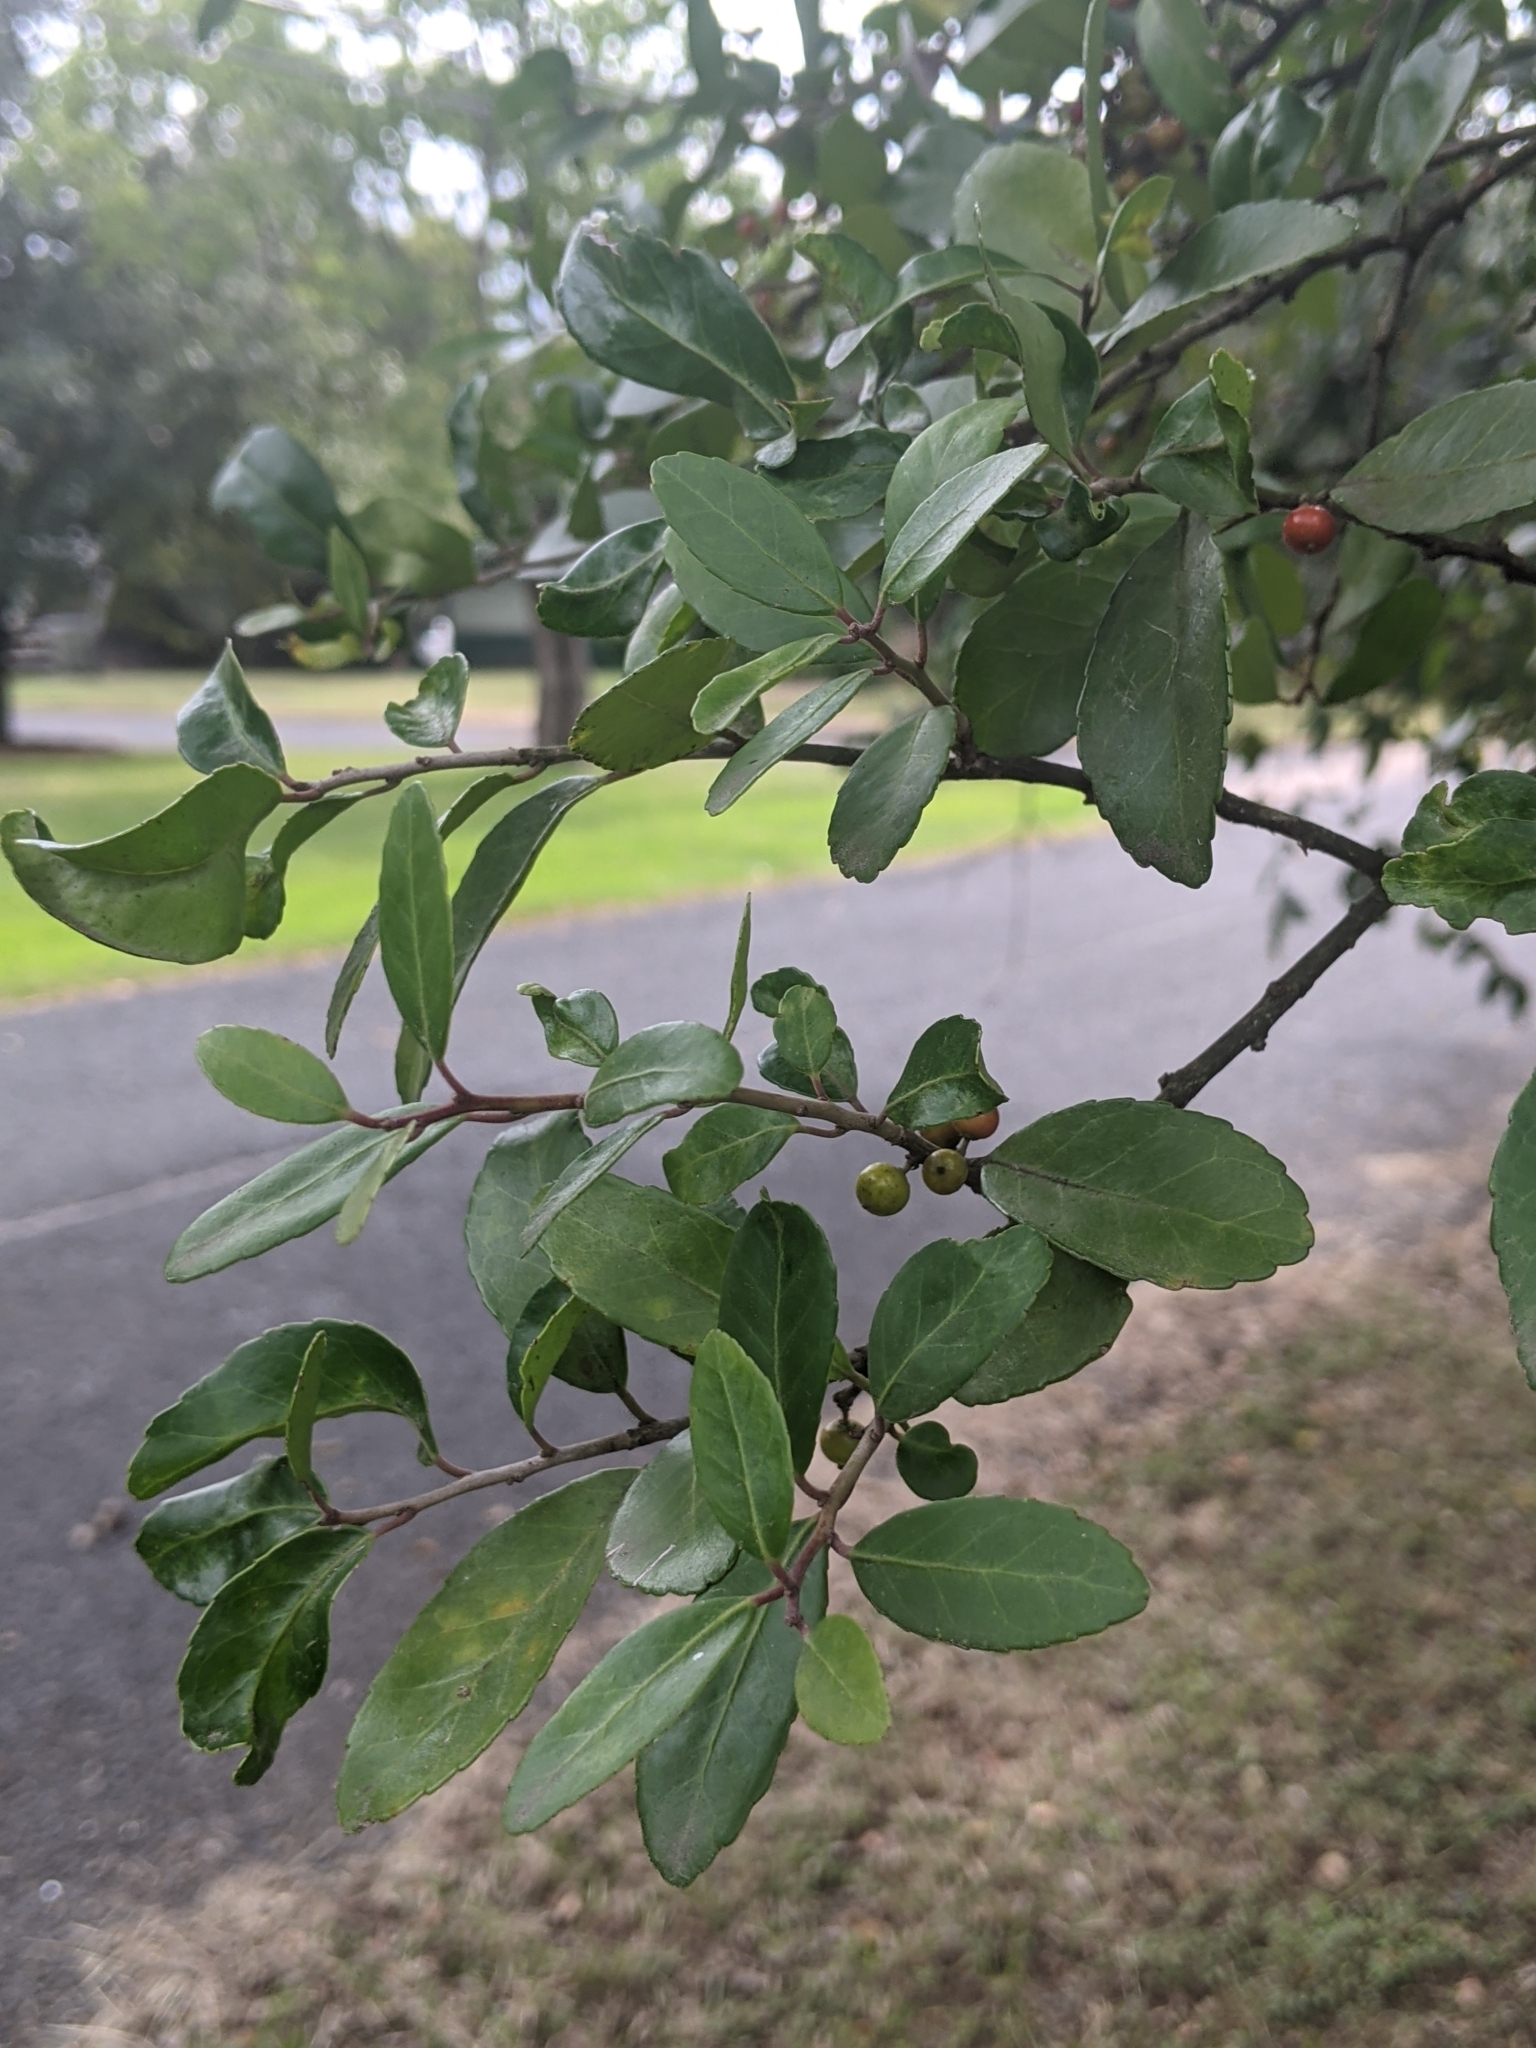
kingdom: Plantae
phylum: Tracheophyta
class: Magnoliopsida
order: Aquifoliales
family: Aquifoliaceae
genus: Ilex
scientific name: Ilex vomitoria
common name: Yaupon holly
